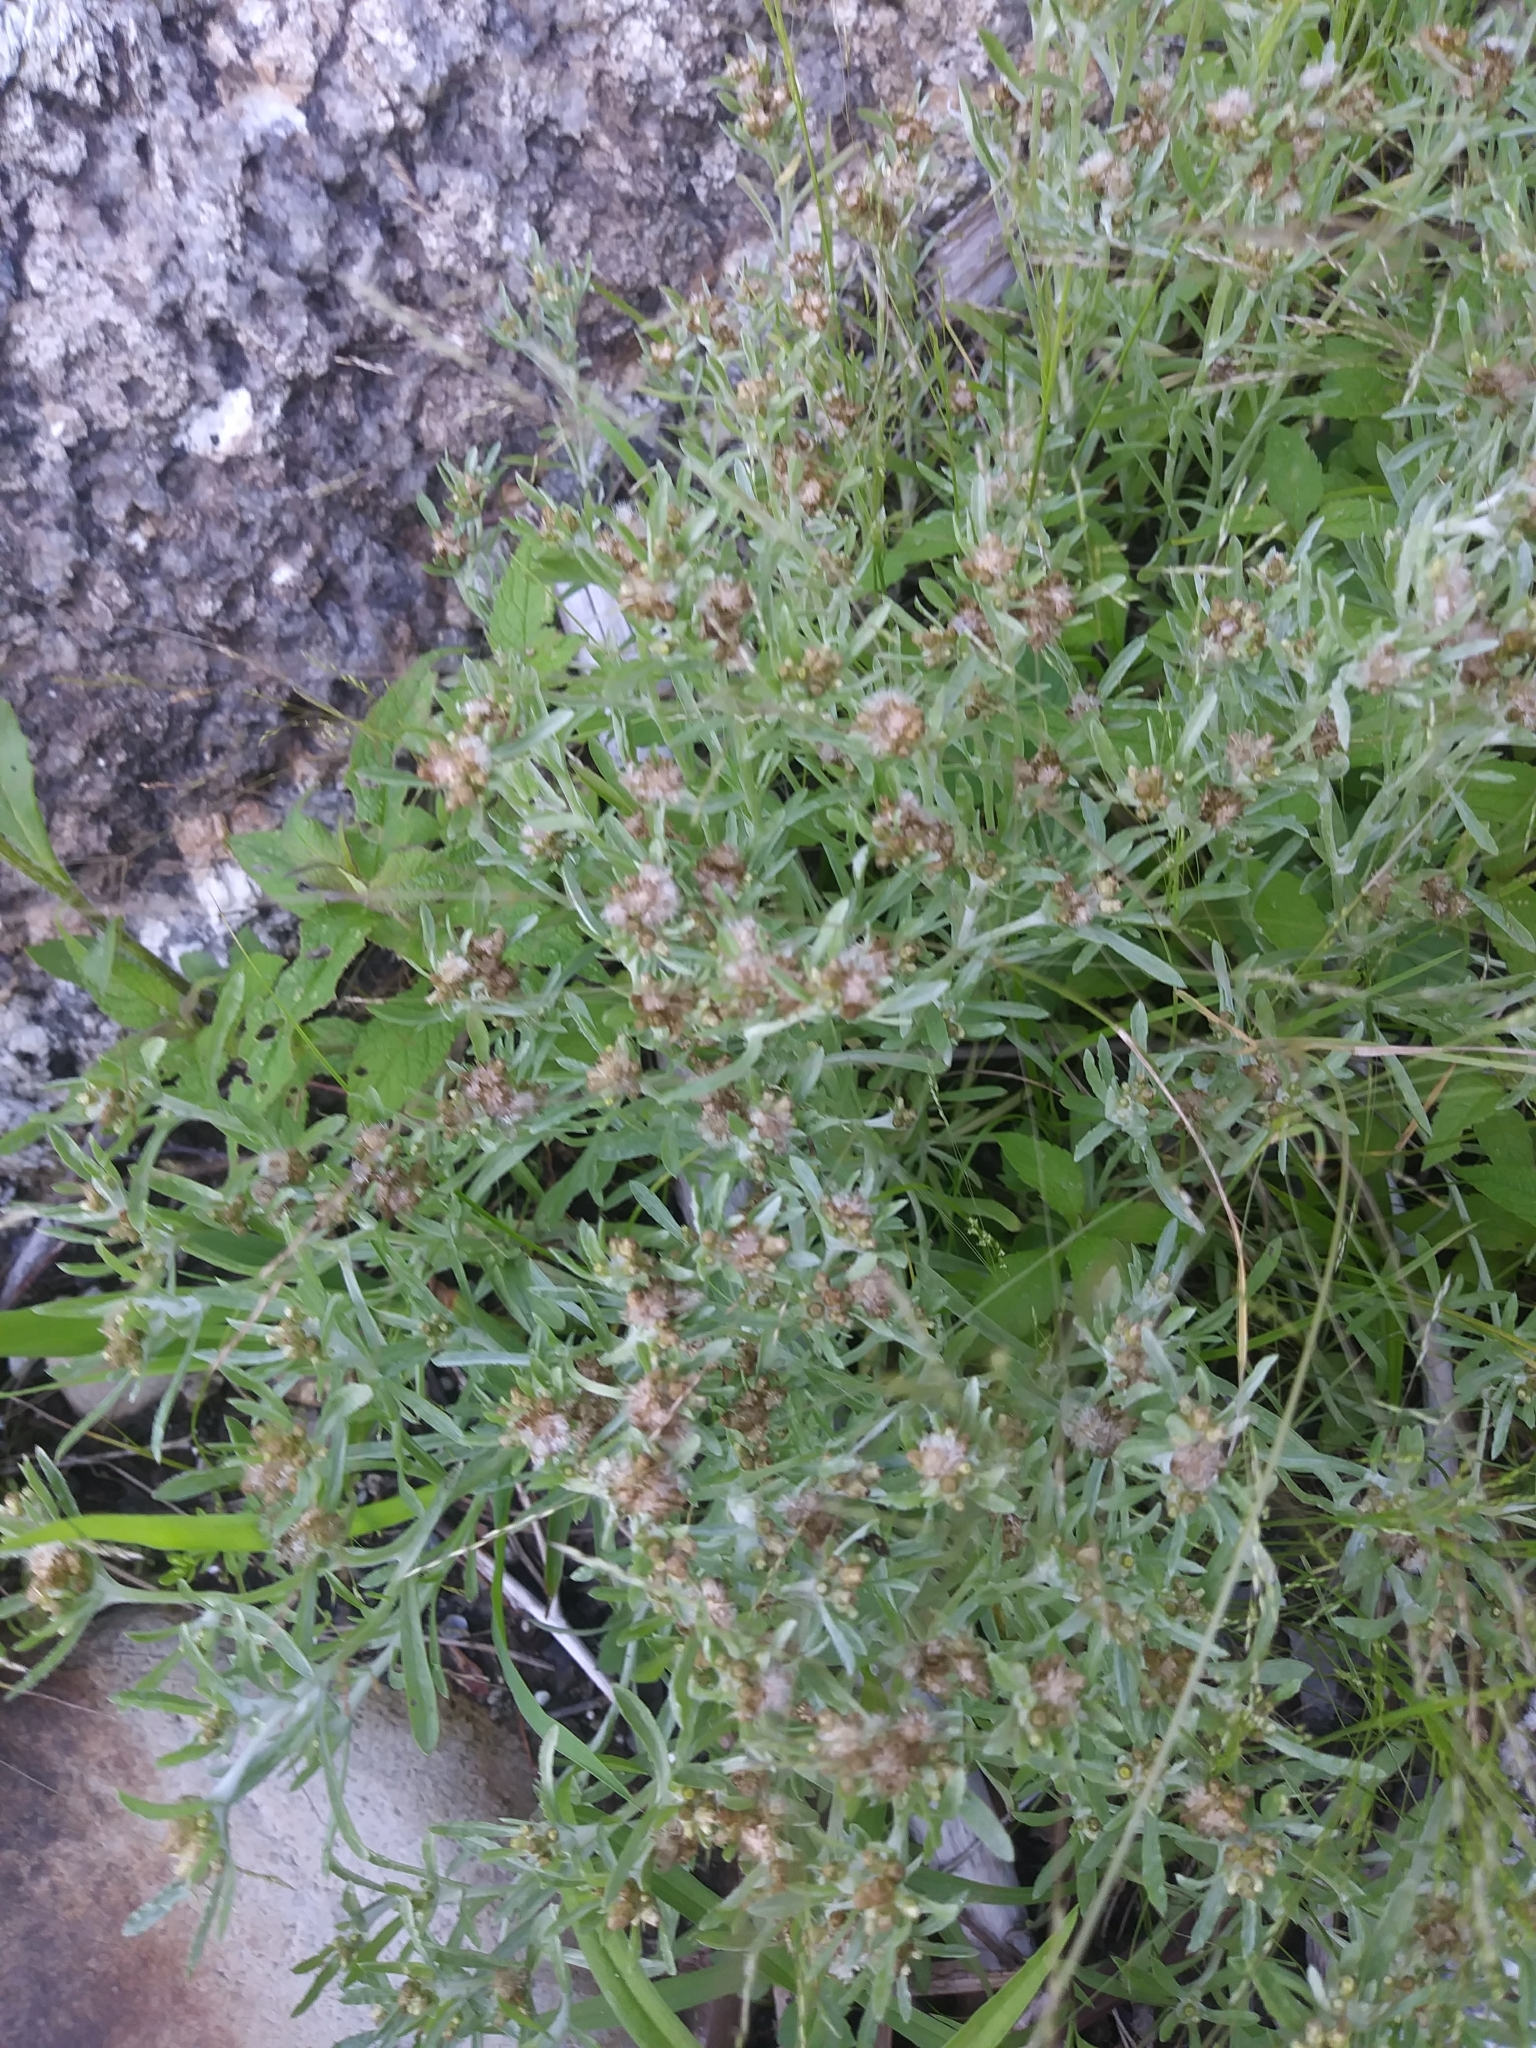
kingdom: Plantae
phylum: Tracheophyta
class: Magnoliopsida
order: Asterales
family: Asteraceae
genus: Gnaphalium
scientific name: Gnaphalium uliginosum
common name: Marsh cudweed
